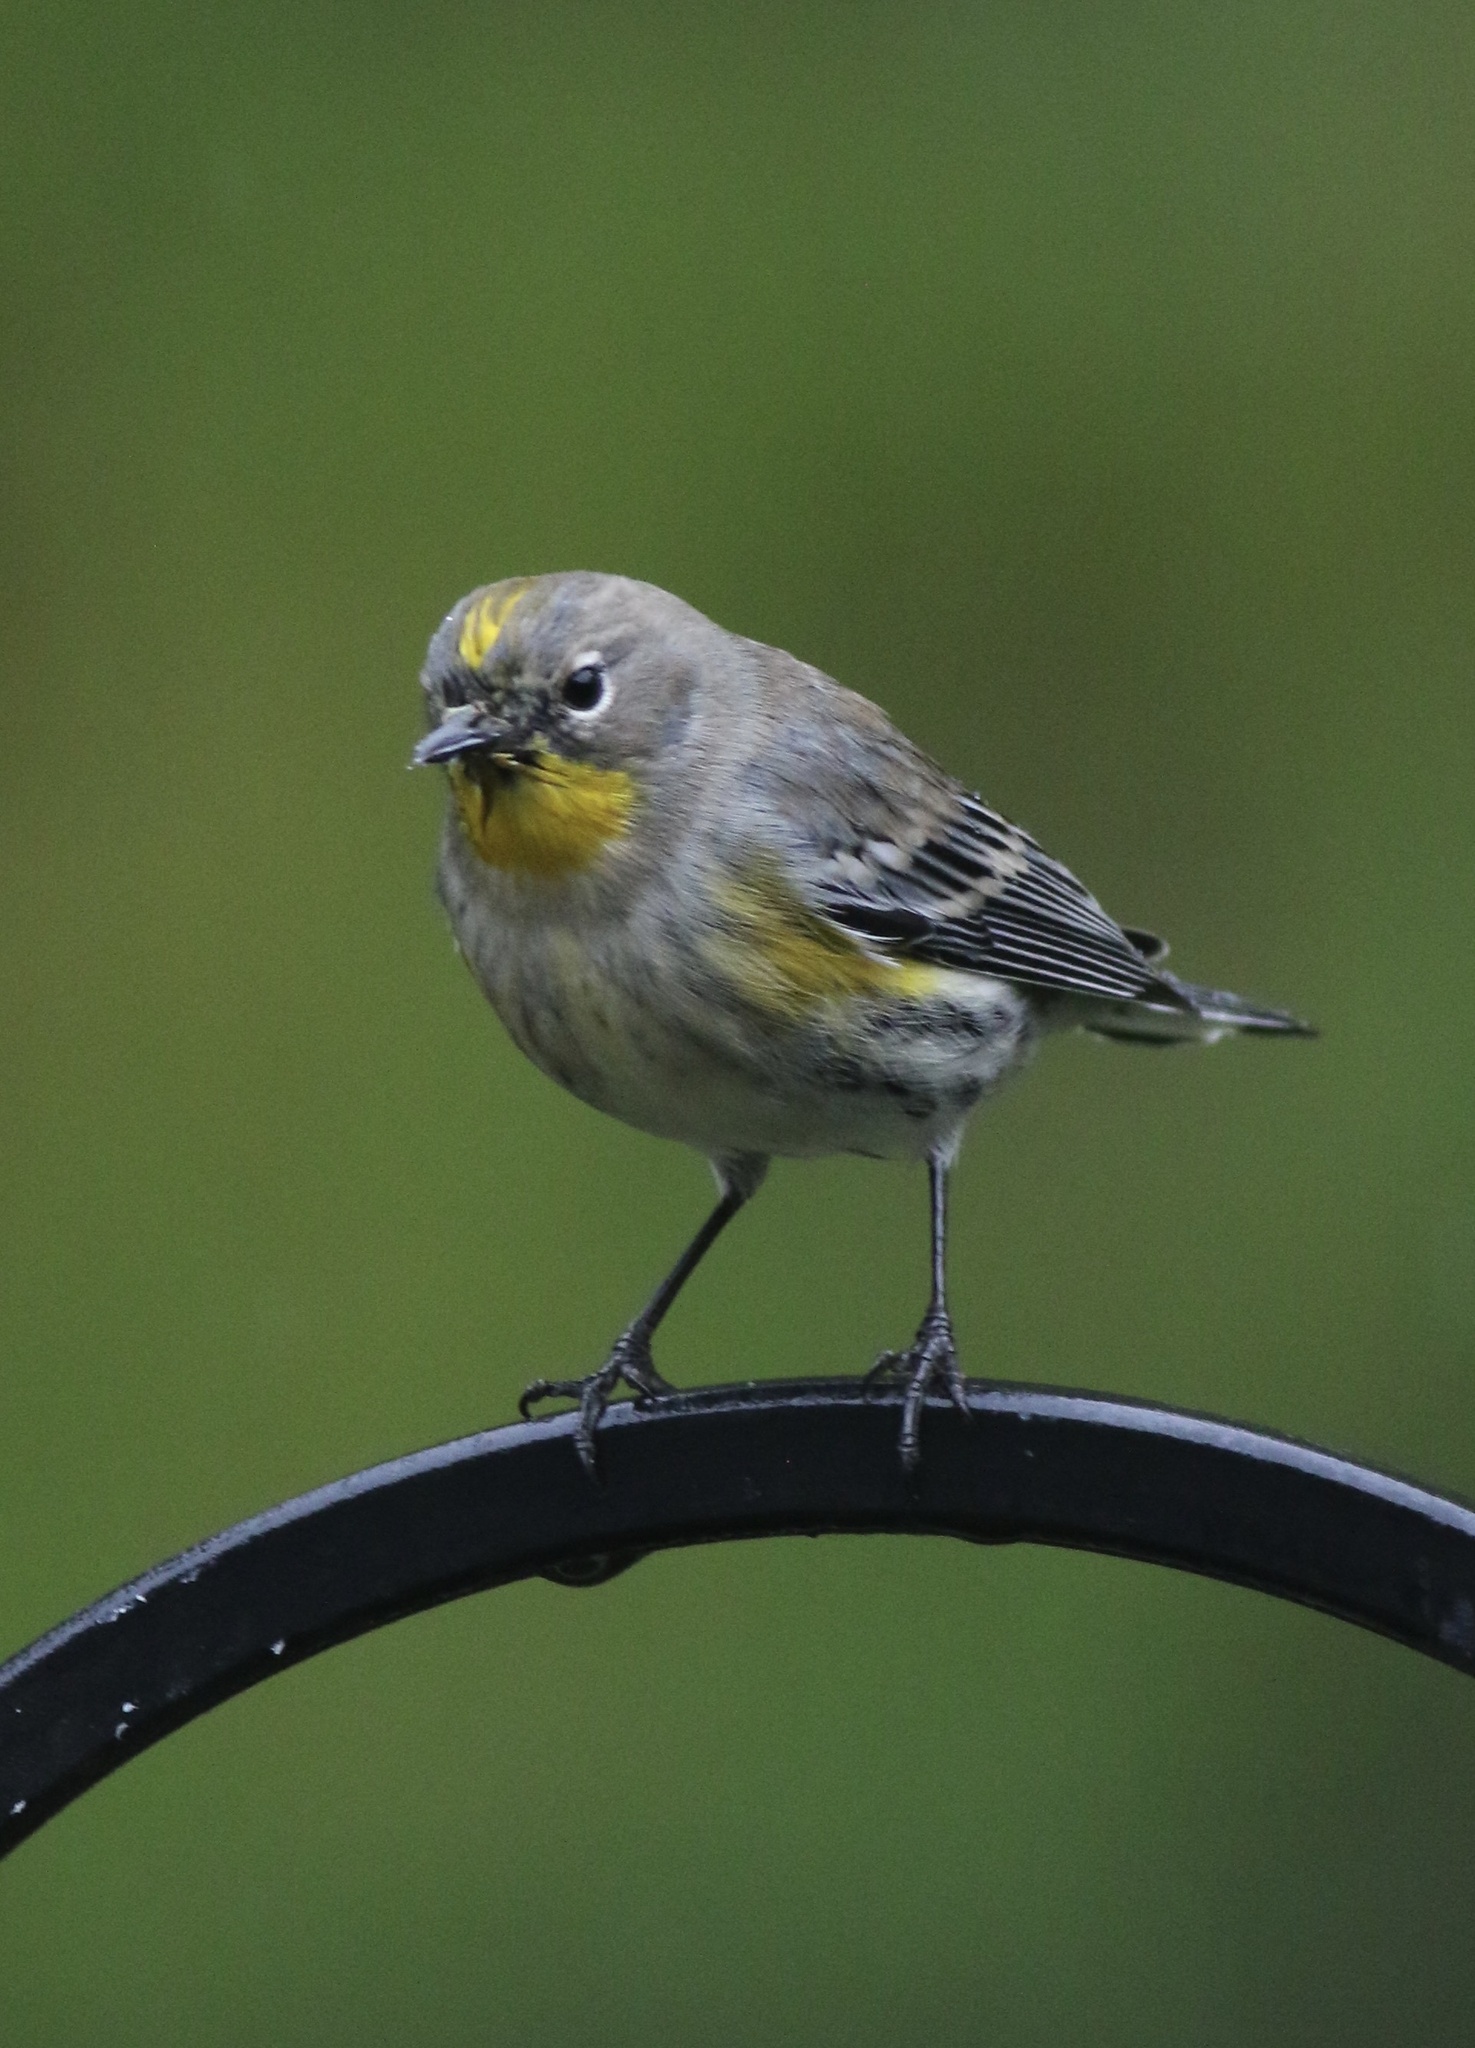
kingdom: Animalia
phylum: Chordata
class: Aves
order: Passeriformes
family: Parulidae
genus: Setophaga
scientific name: Setophaga coronata
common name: Myrtle warbler
